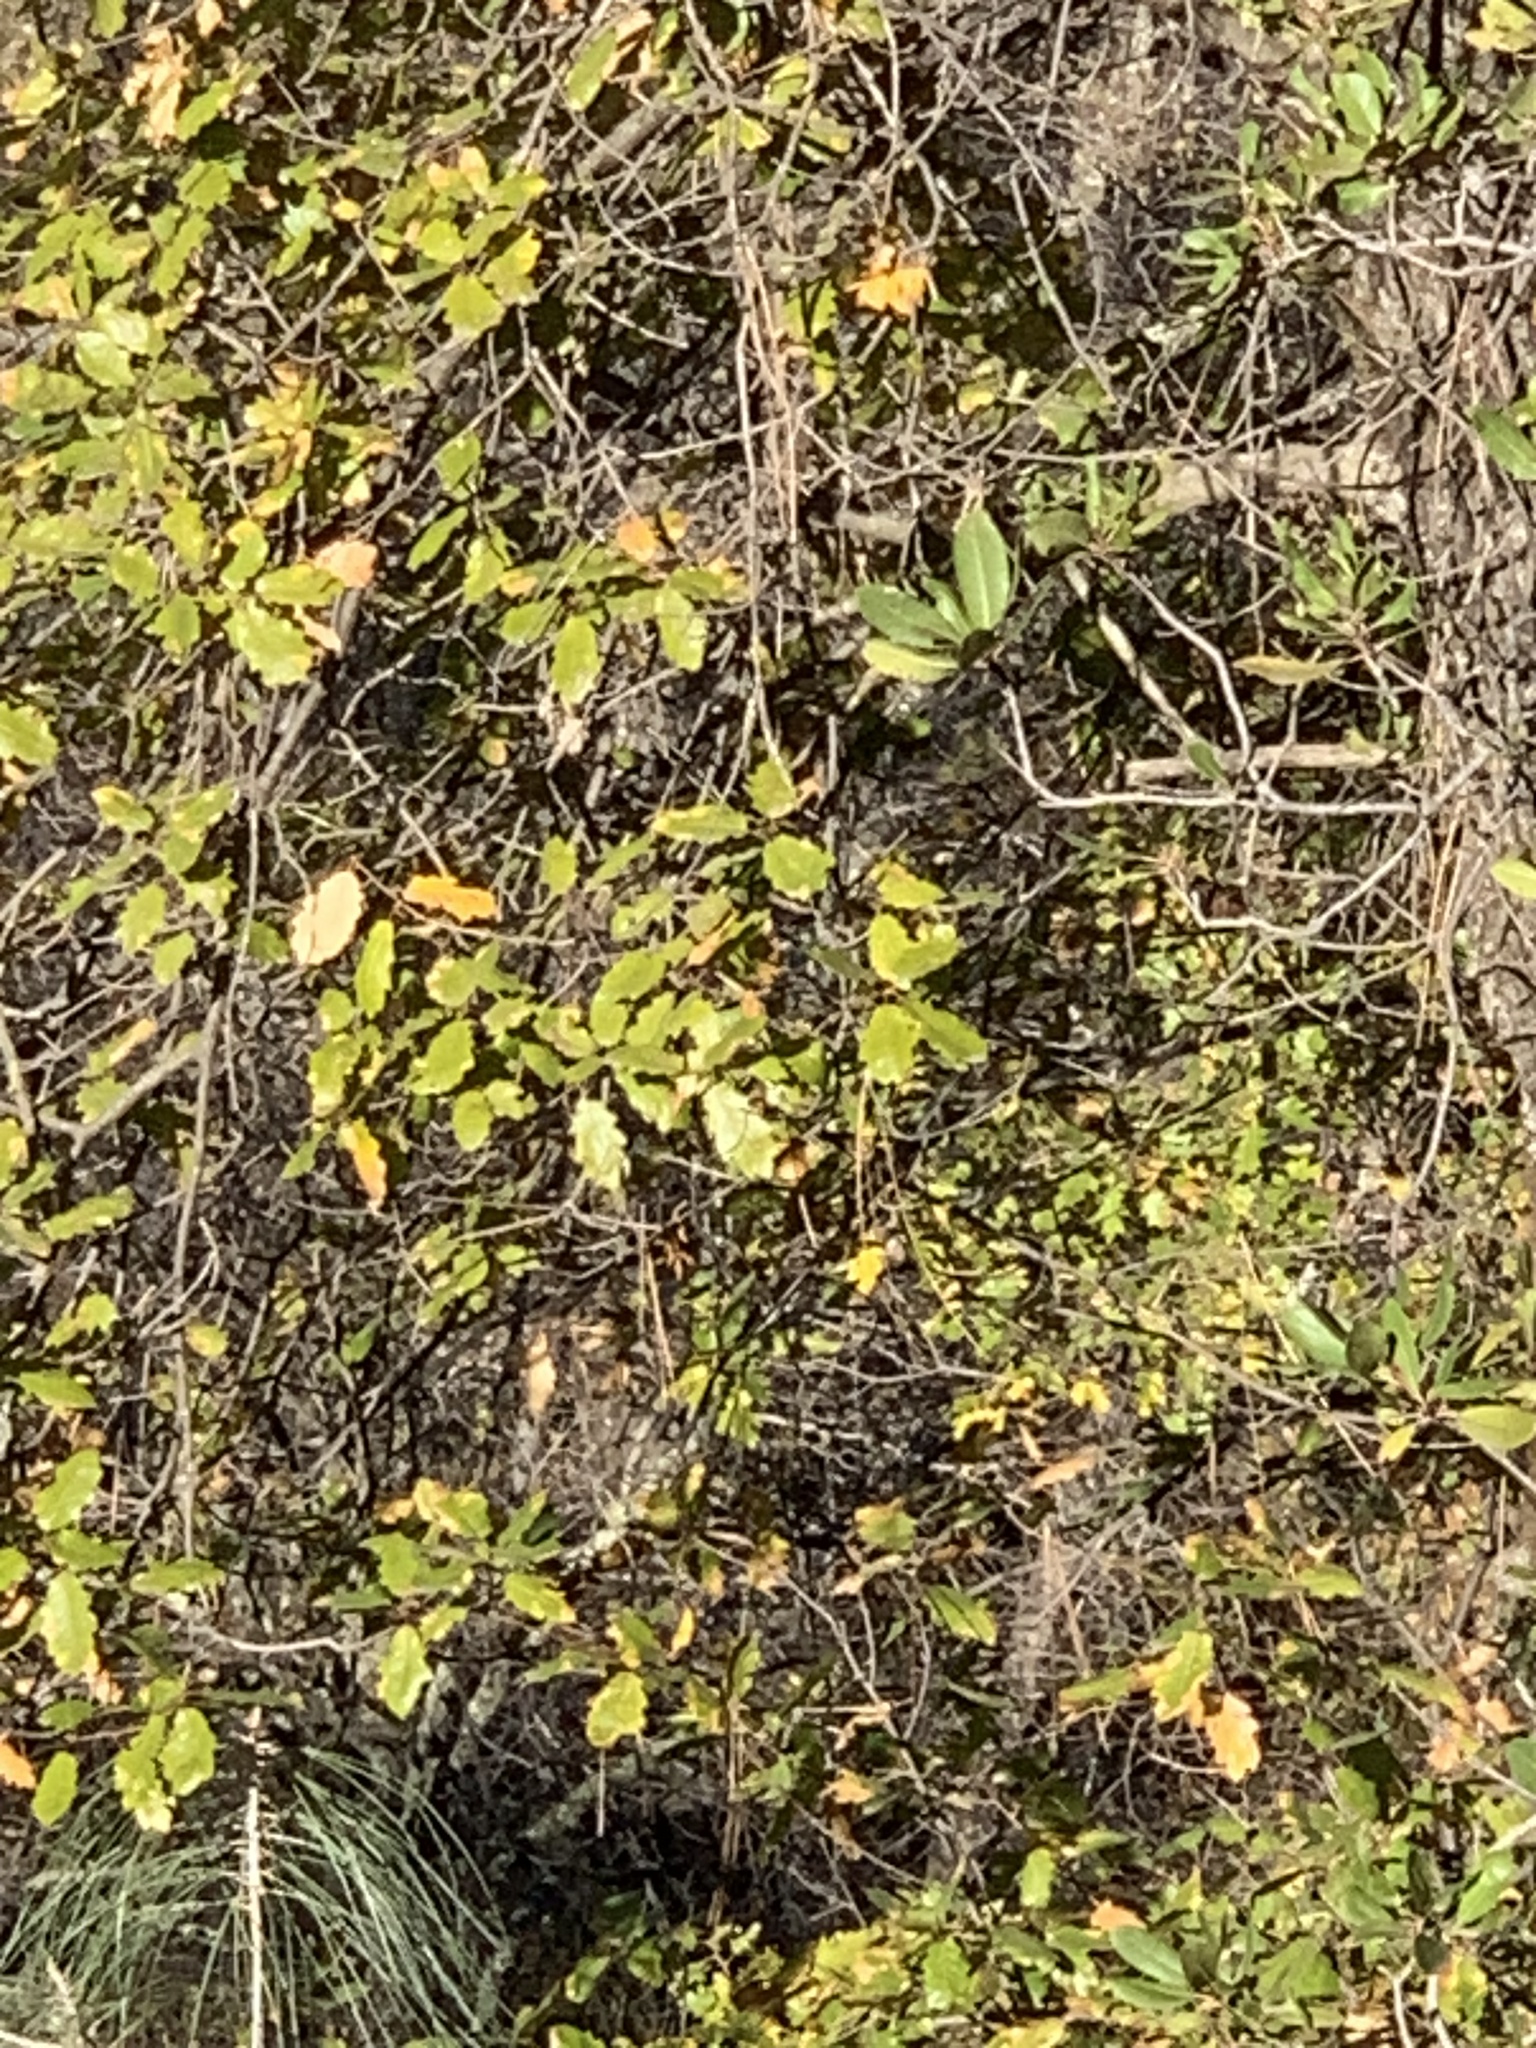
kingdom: Plantae
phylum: Tracheophyta
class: Magnoliopsida
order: Fagales
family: Fagaceae
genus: Quercus
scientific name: Quercus morehus
